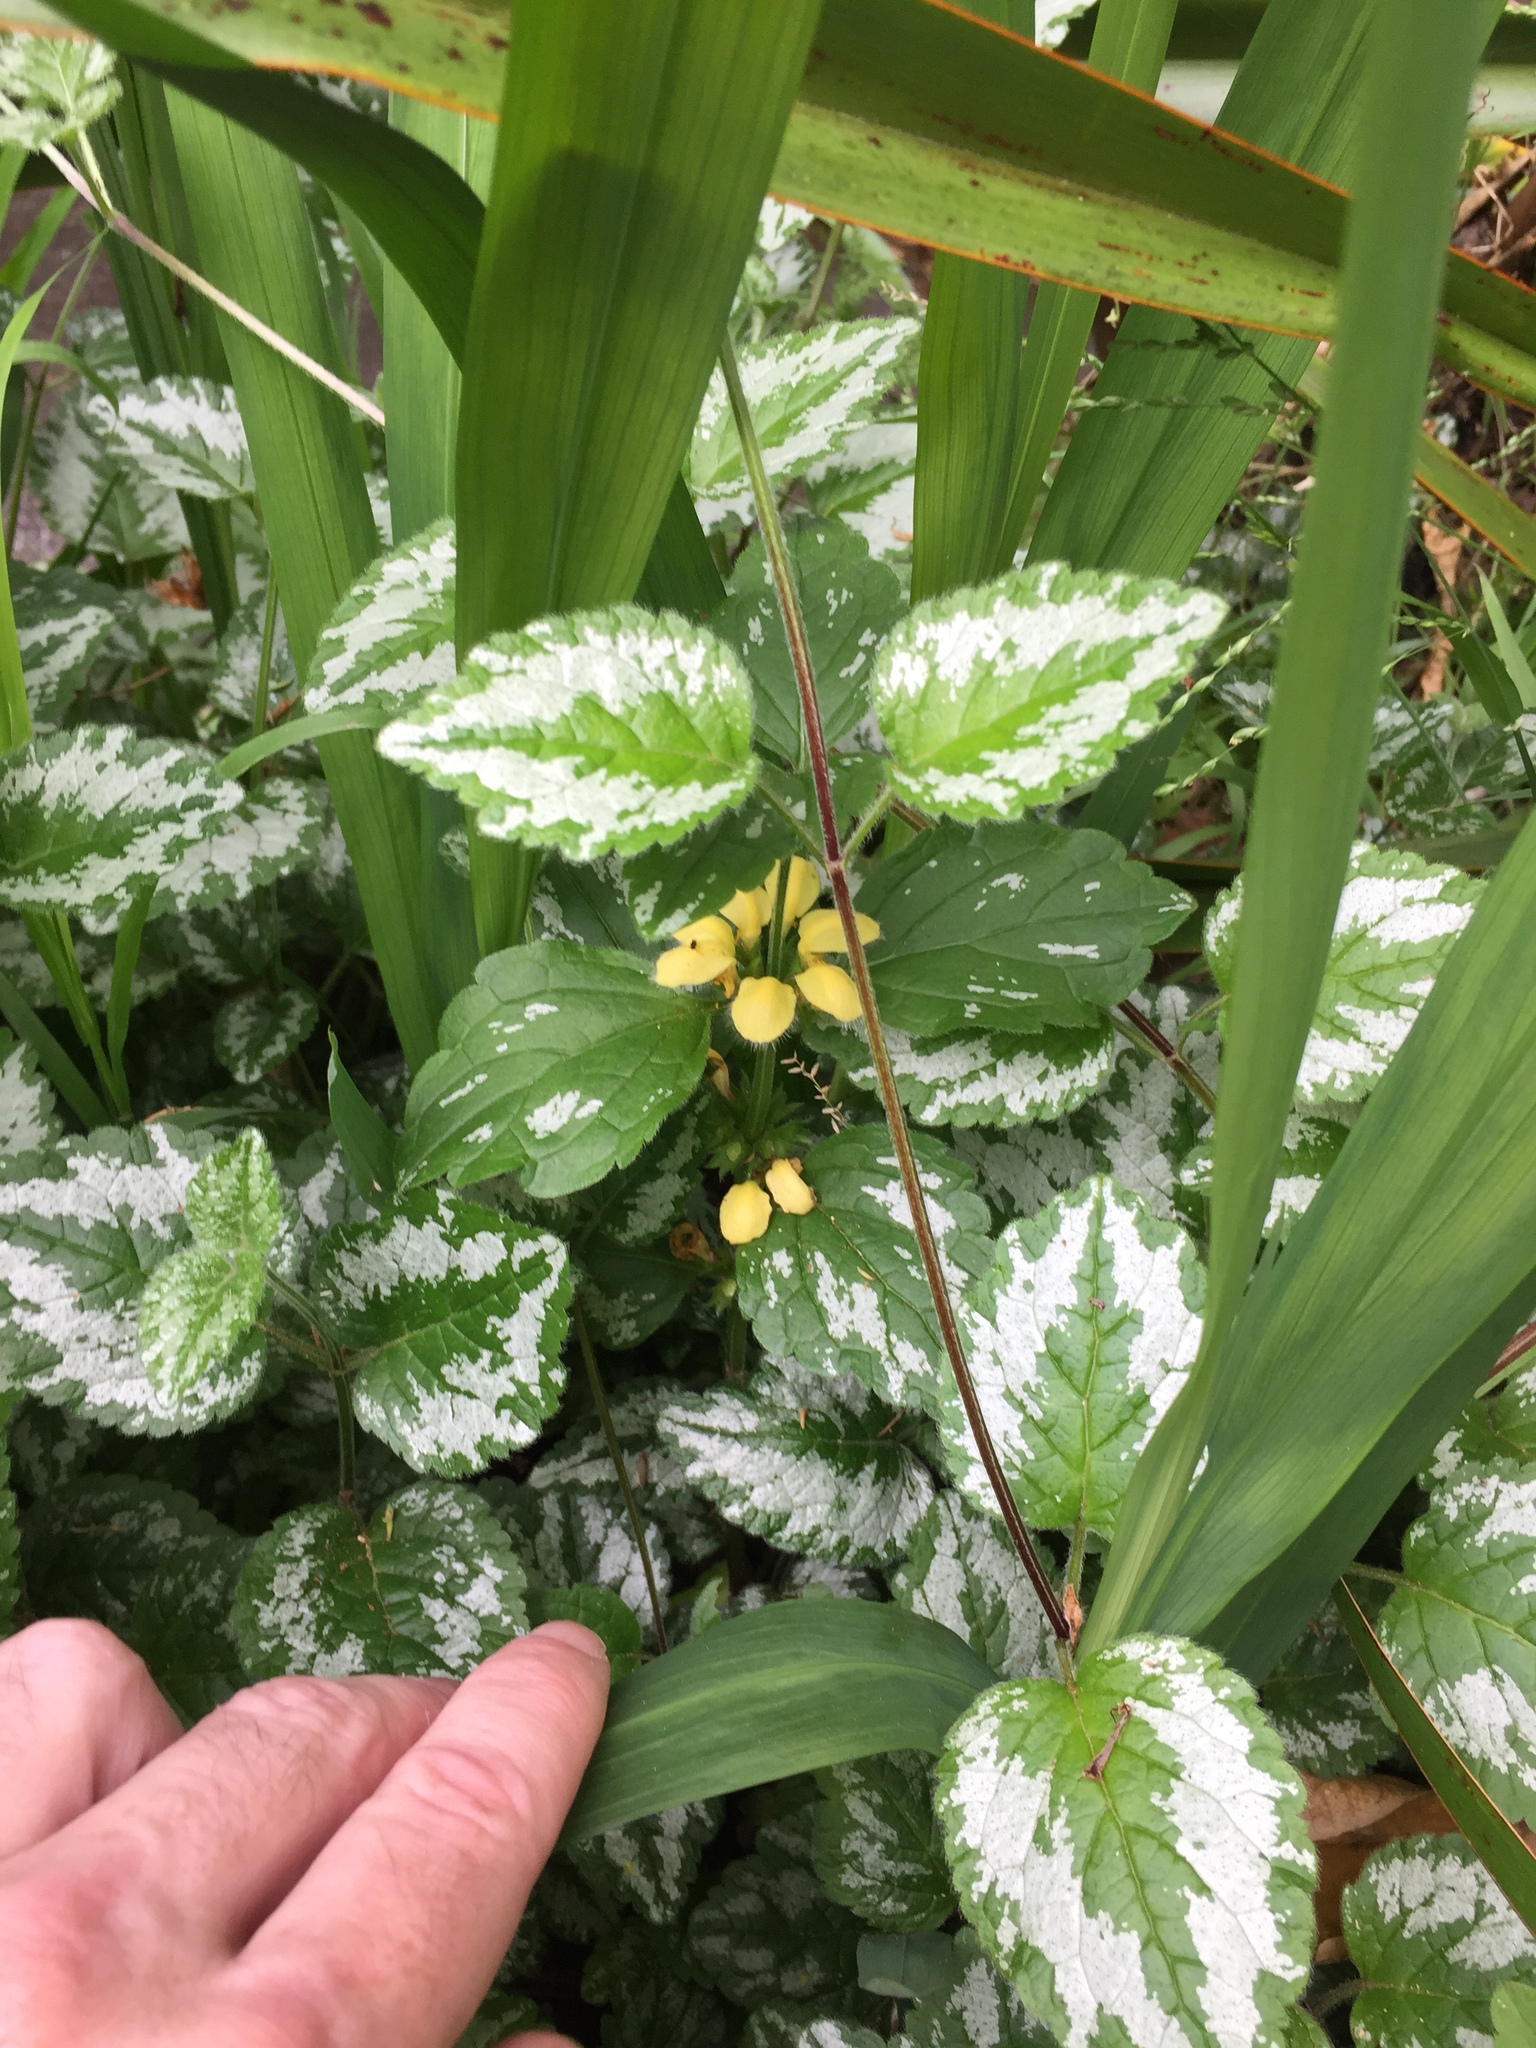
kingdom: Plantae
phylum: Tracheophyta
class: Magnoliopsida
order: Lamiales
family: Lamiaceae
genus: Lamium
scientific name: Lamium galeobdolon
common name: Yellow archangel
